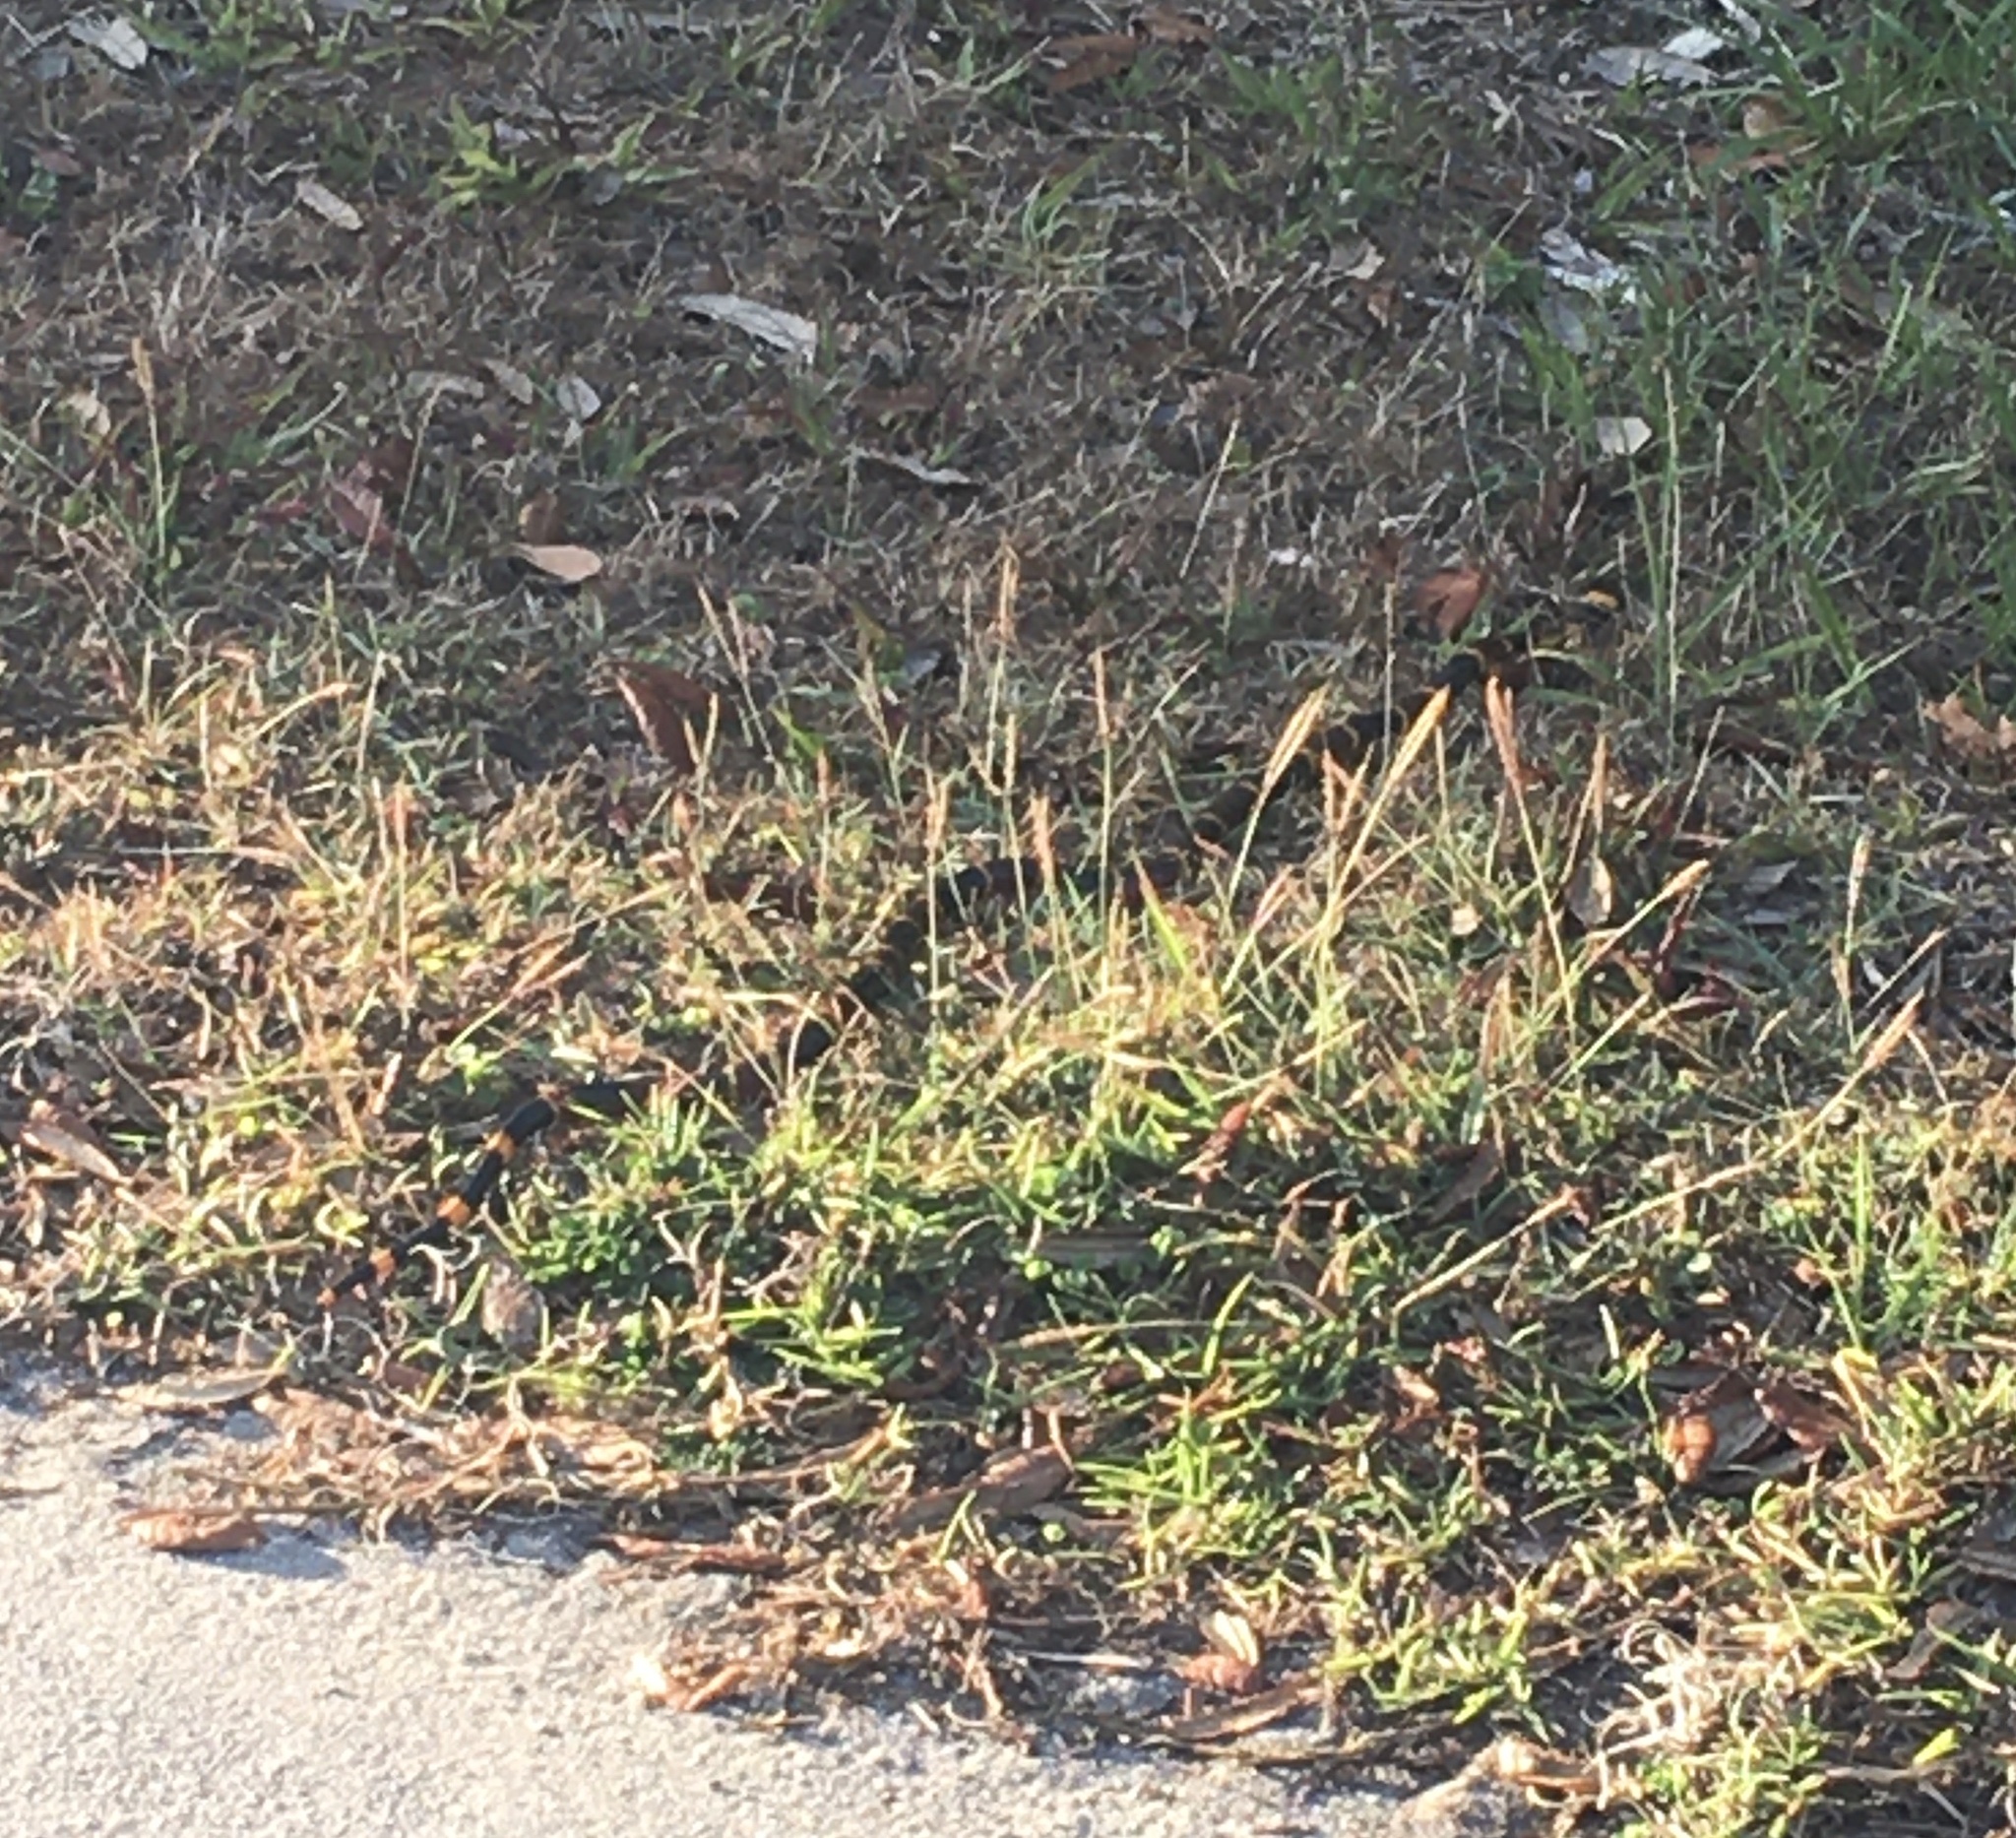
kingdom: Animalia
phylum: Chordata
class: Squamata
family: Elapidae
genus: Micrurus
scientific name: Micrurus fulvius
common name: Eastern coral snake
